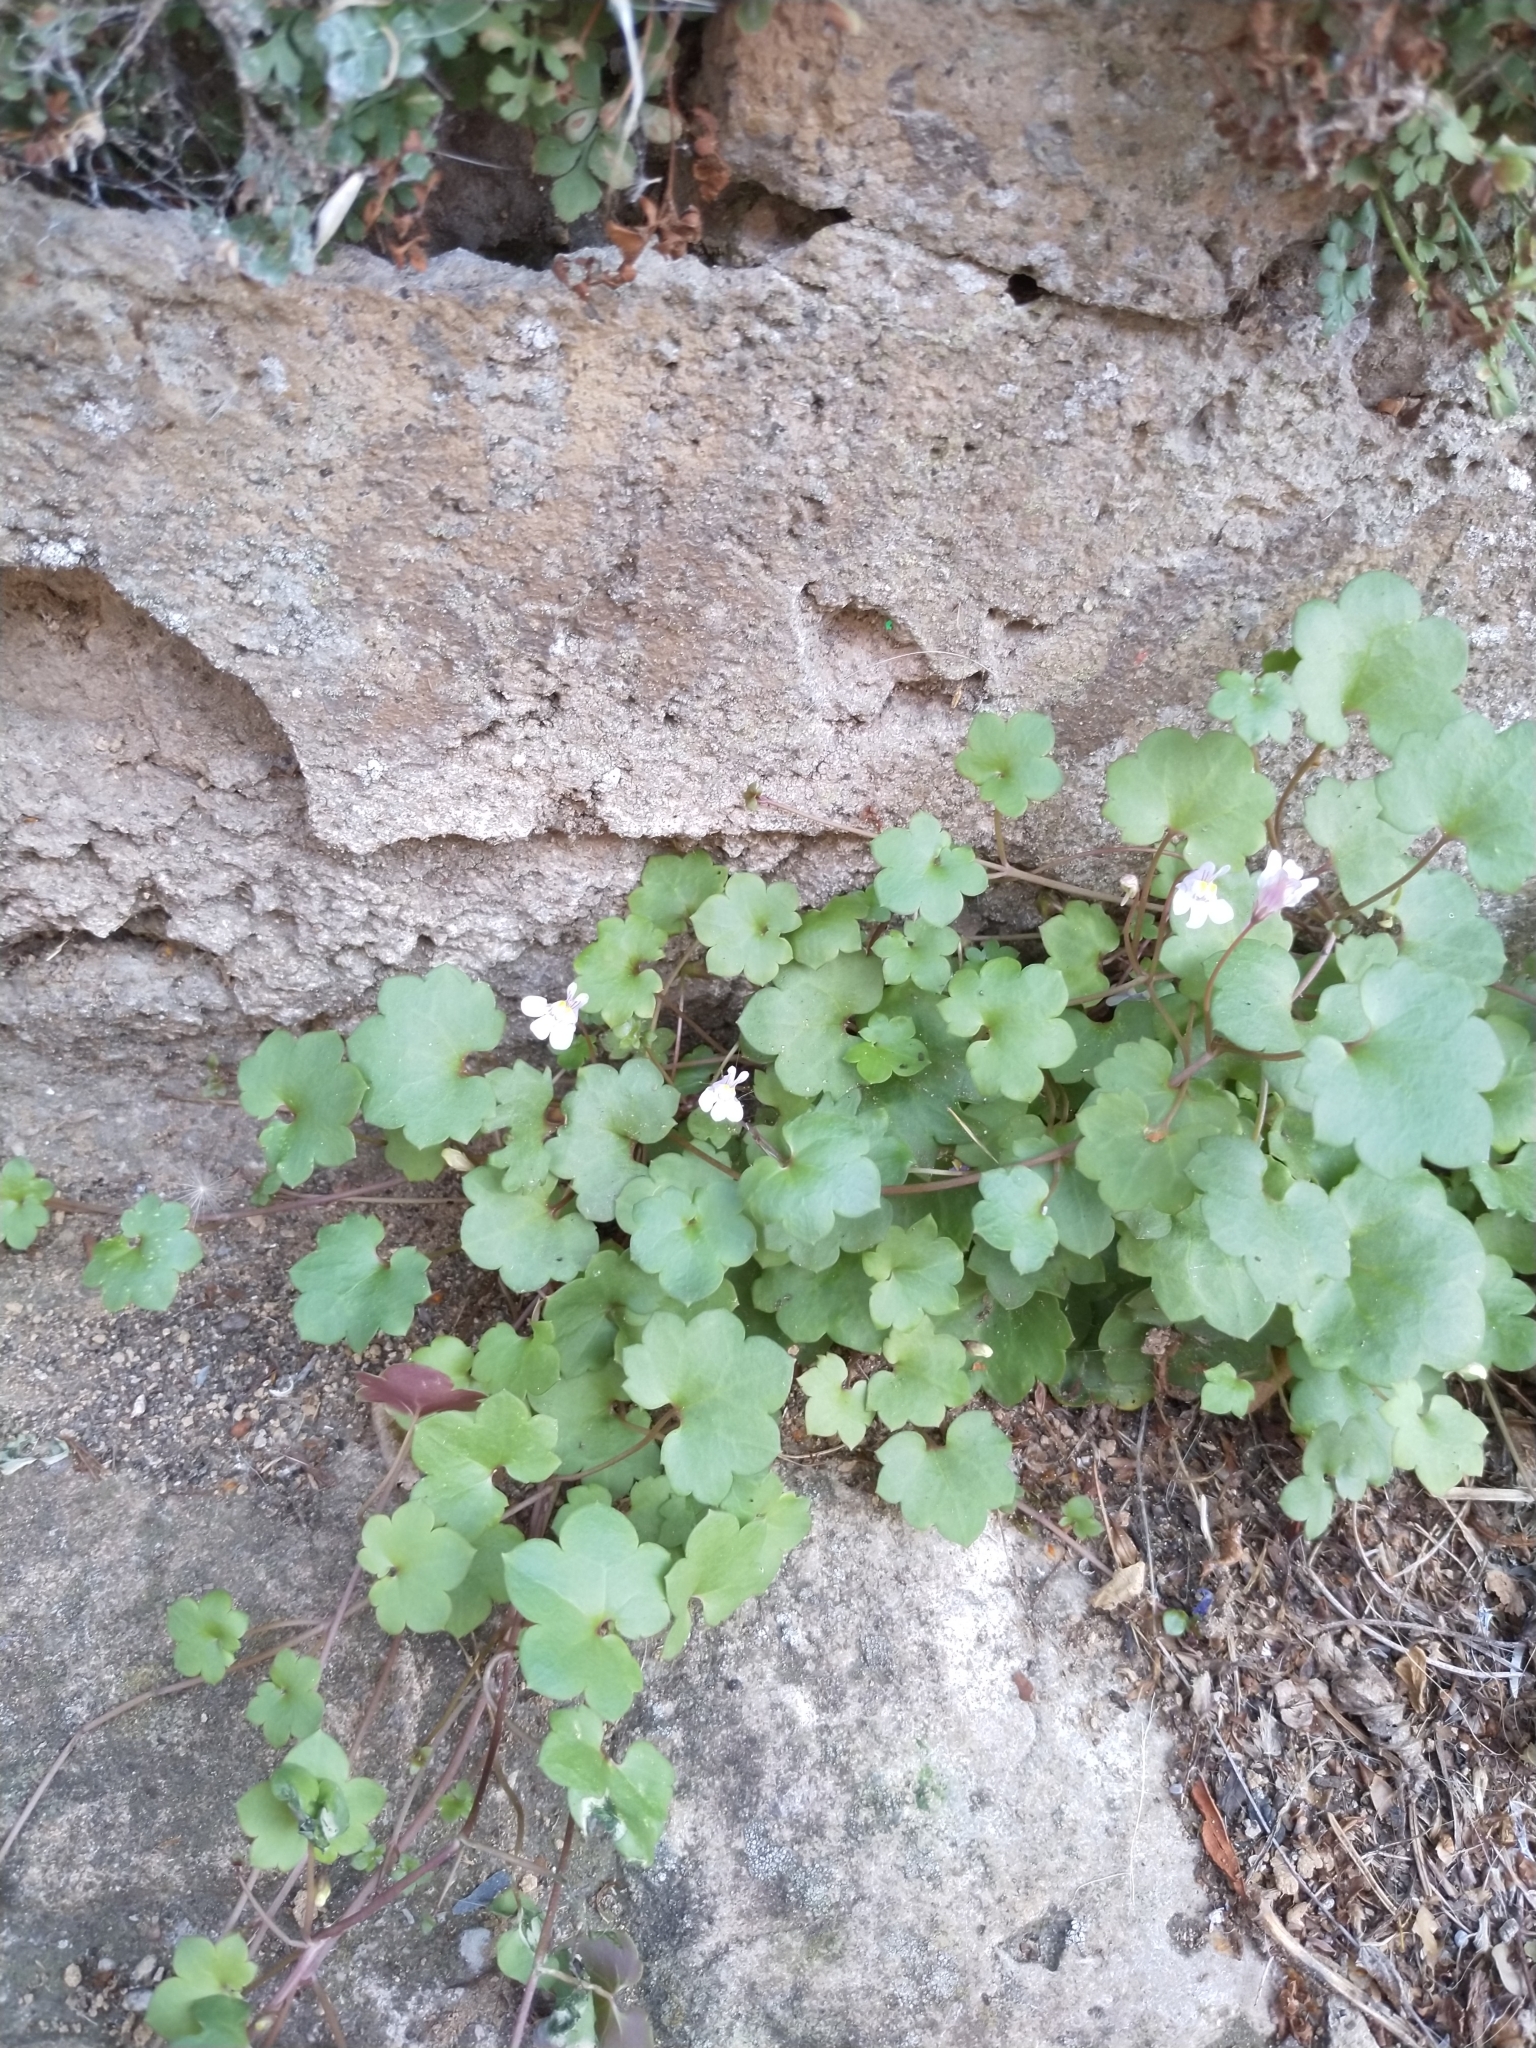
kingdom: Plantae
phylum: Tracheophyta
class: Magnoliopsida
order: Lamiales
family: Plantaginaceae
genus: Cymbalaria
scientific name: Cymbalaria muralis
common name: Ivy-leaved toadflax
